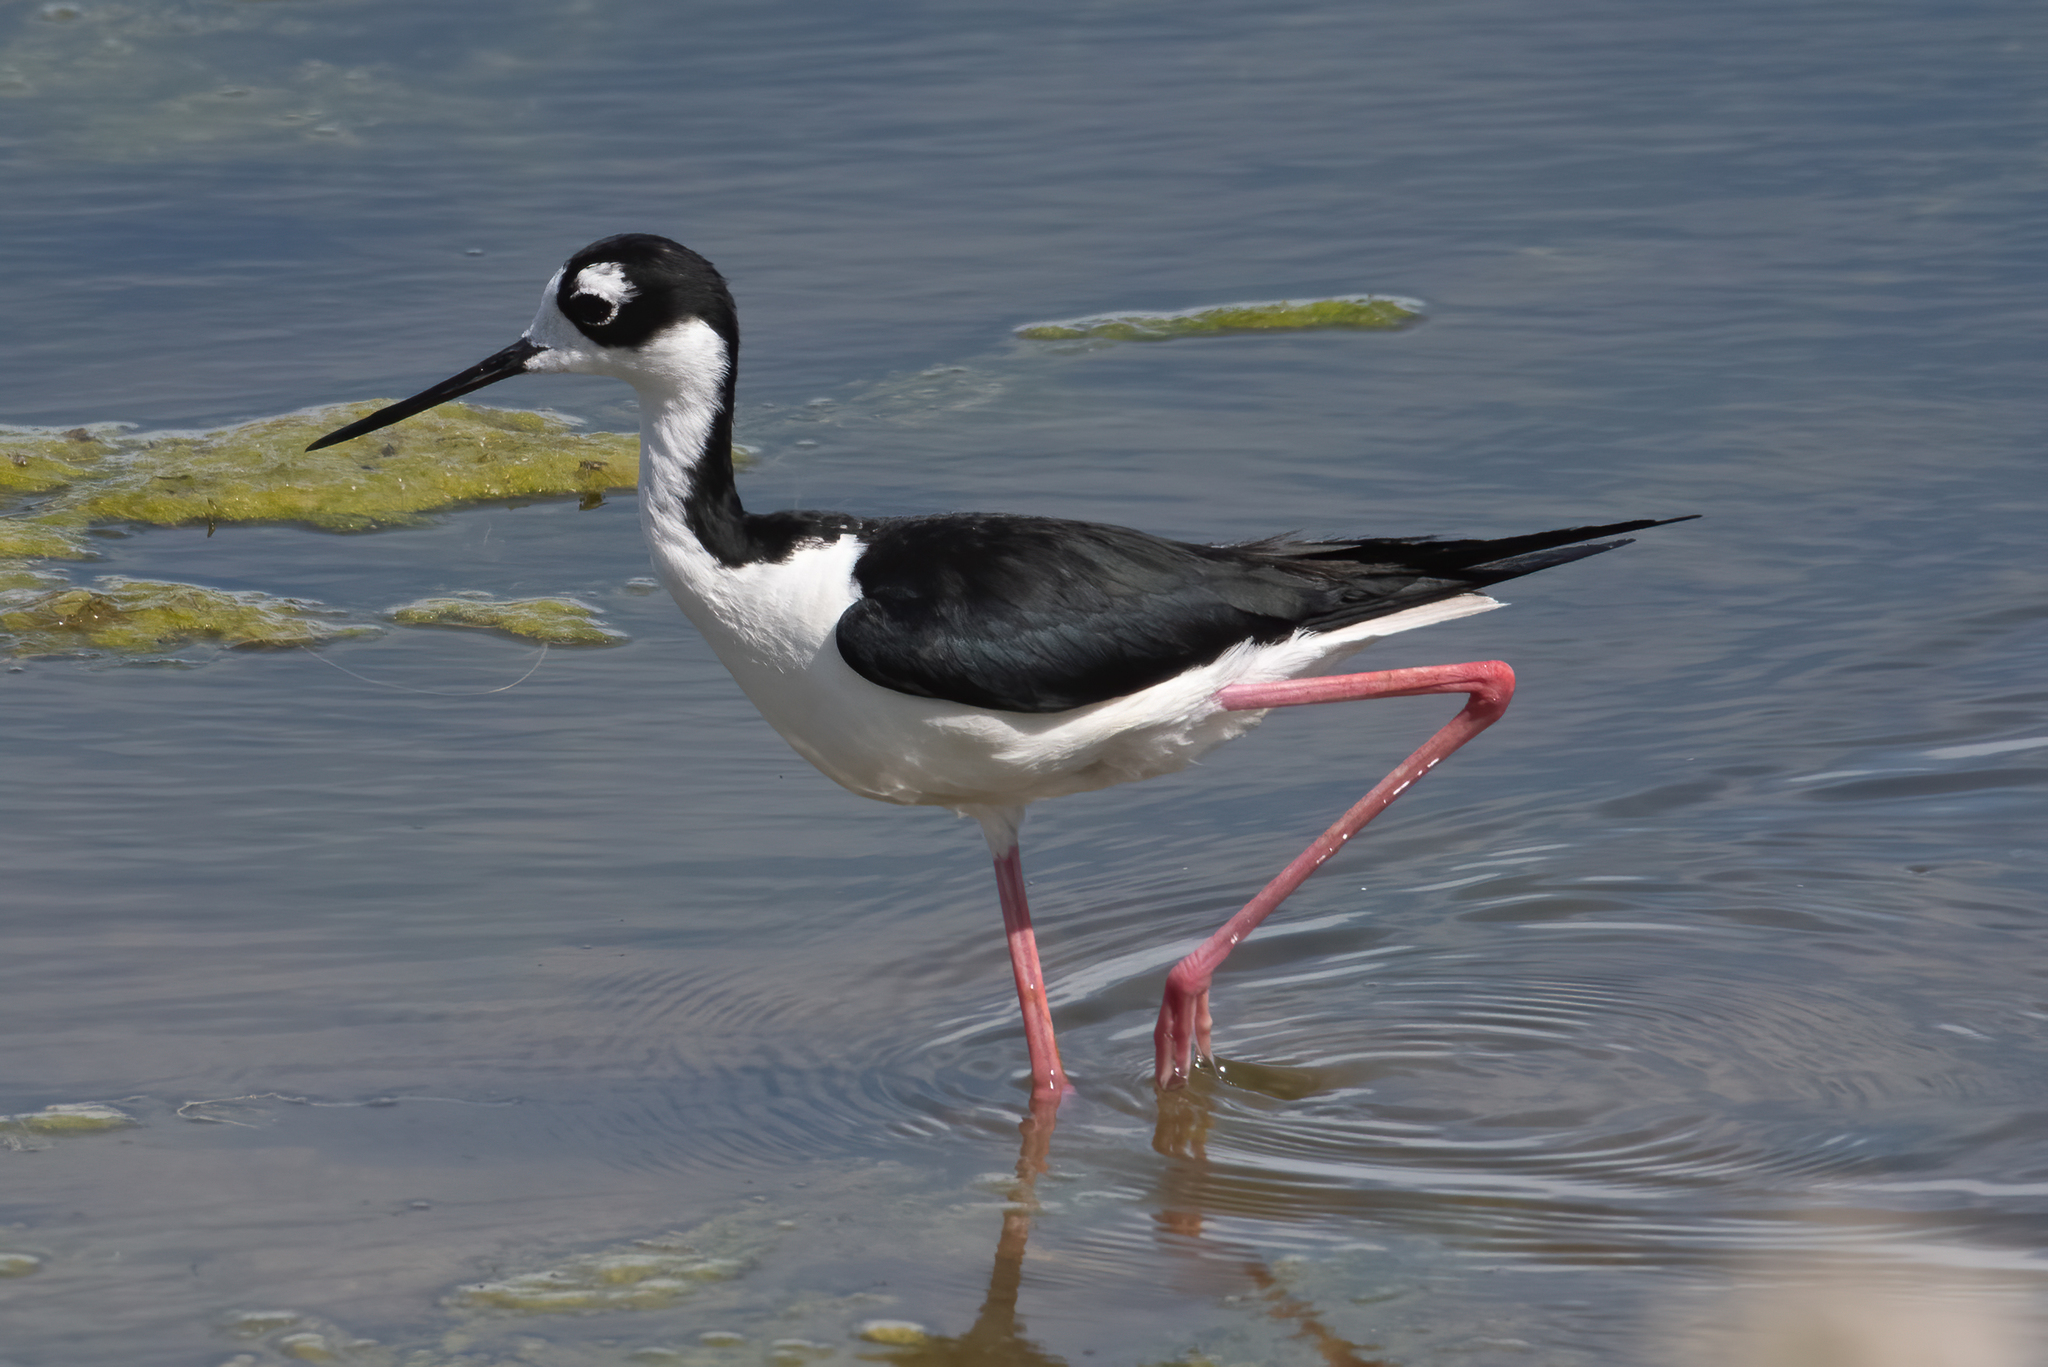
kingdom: Animalia
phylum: Chordata
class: Aves
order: Charadriiformes
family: Recurvirostridae
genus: Himantopus
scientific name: Himantopus mexicanus
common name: Black-necked stilt
